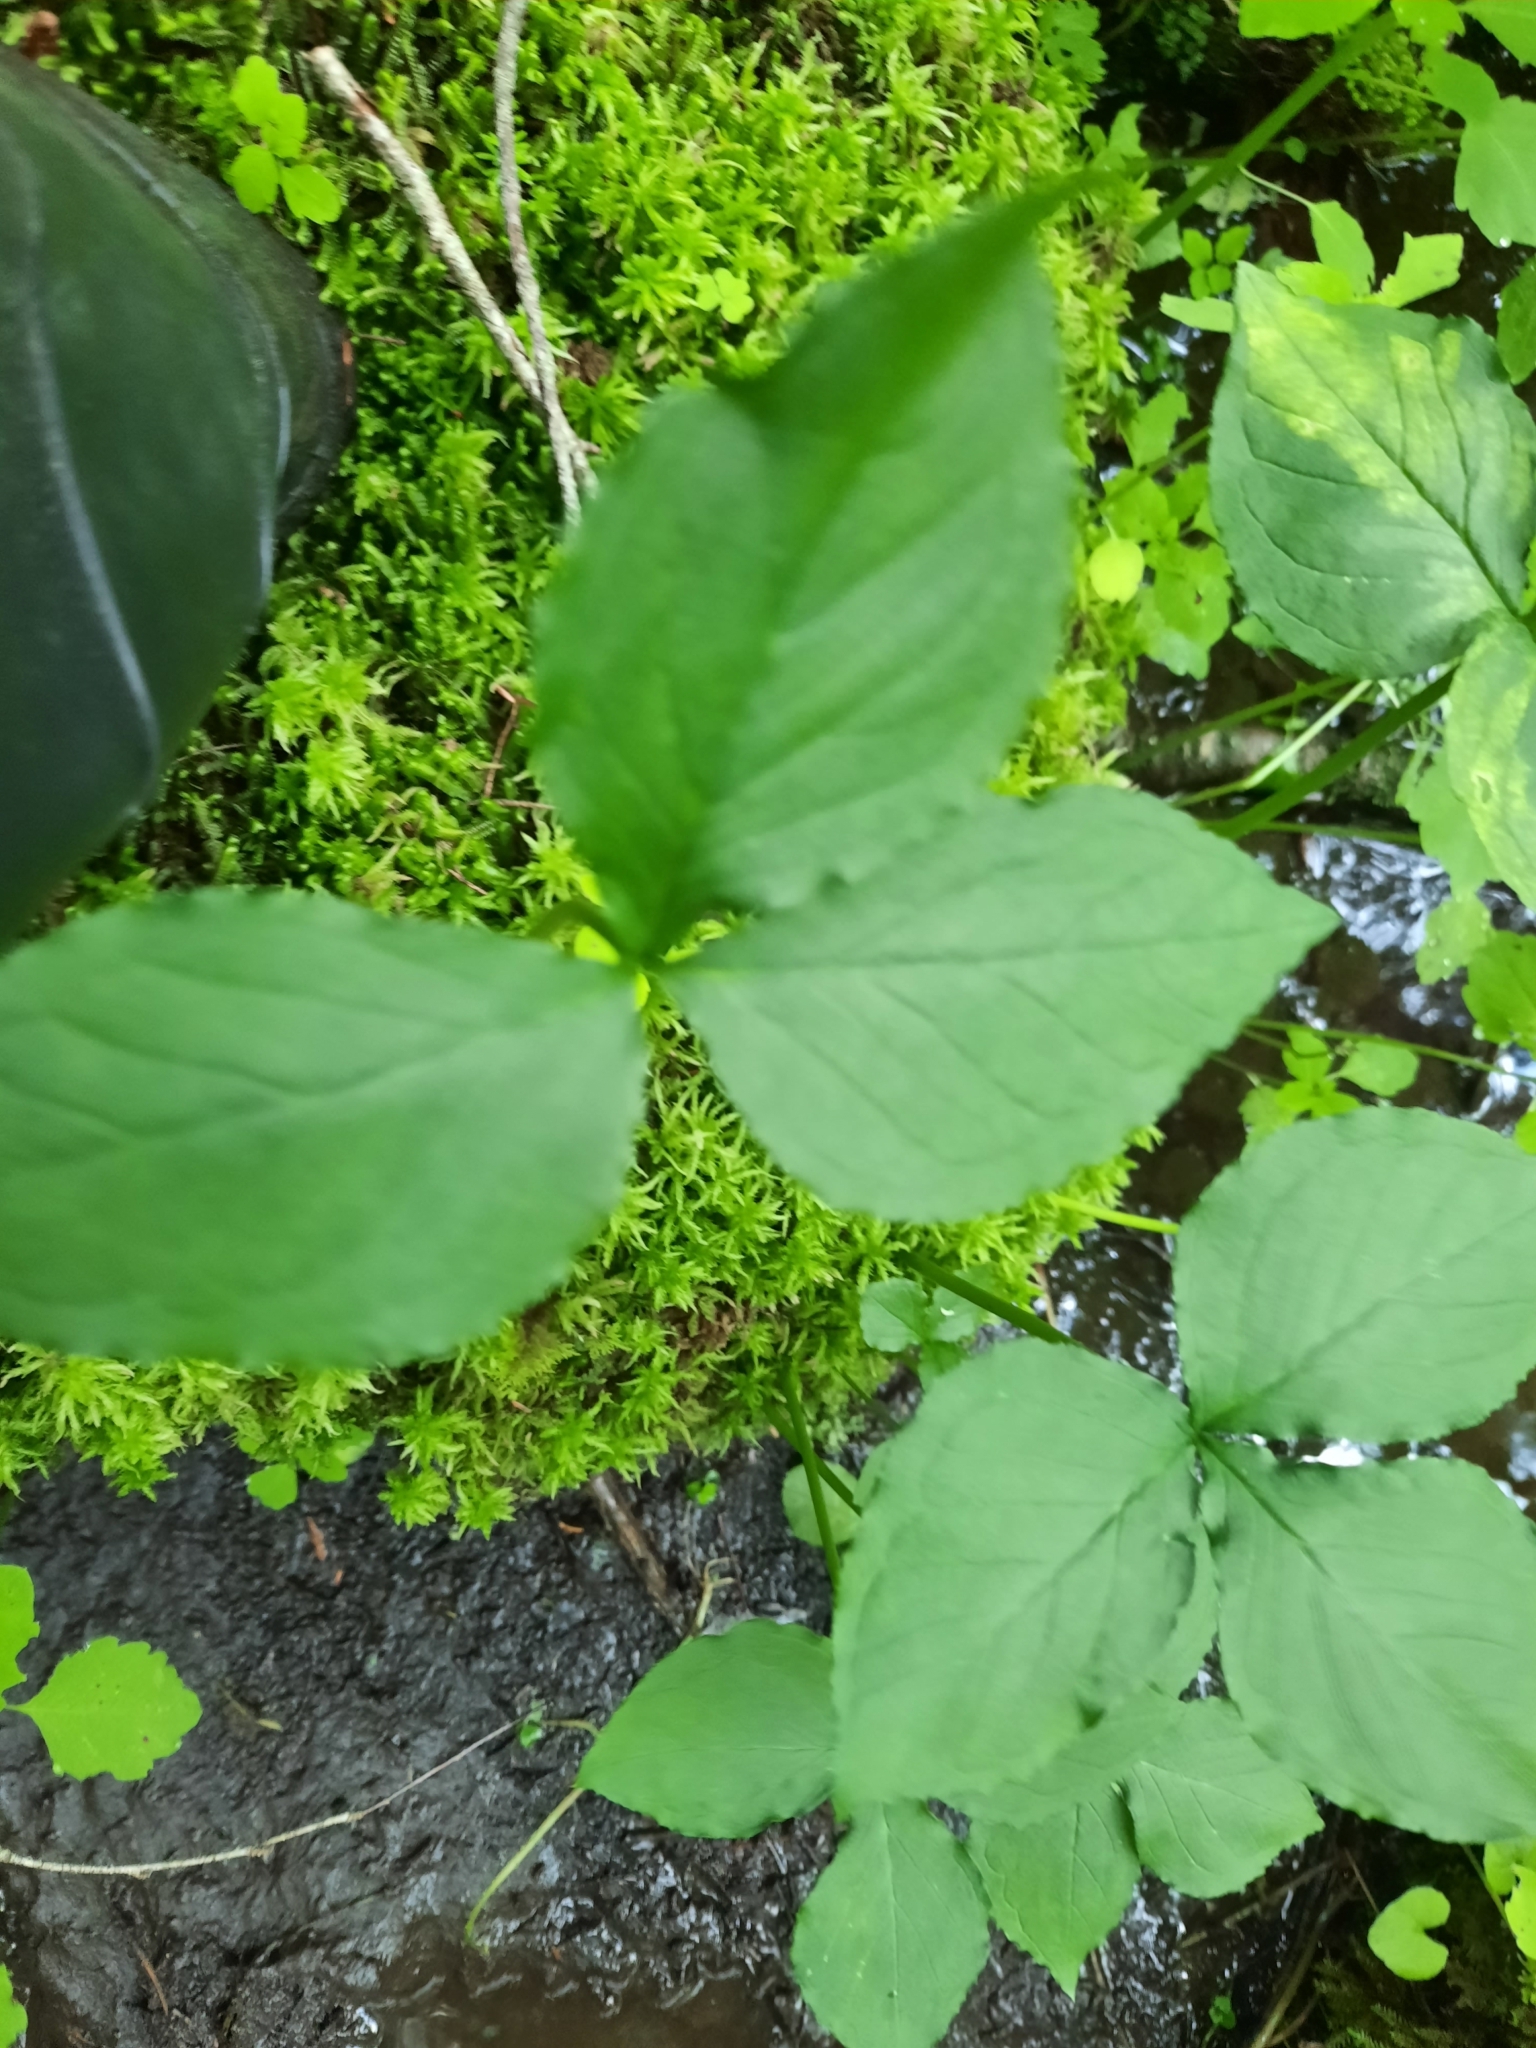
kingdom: Plantae
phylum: Tracheophyta
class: Liliopsida
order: Alismatales
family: Araceae
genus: Arisaema
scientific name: Arisaema stewardsonii
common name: Swamp jack-in-the-pulpit
